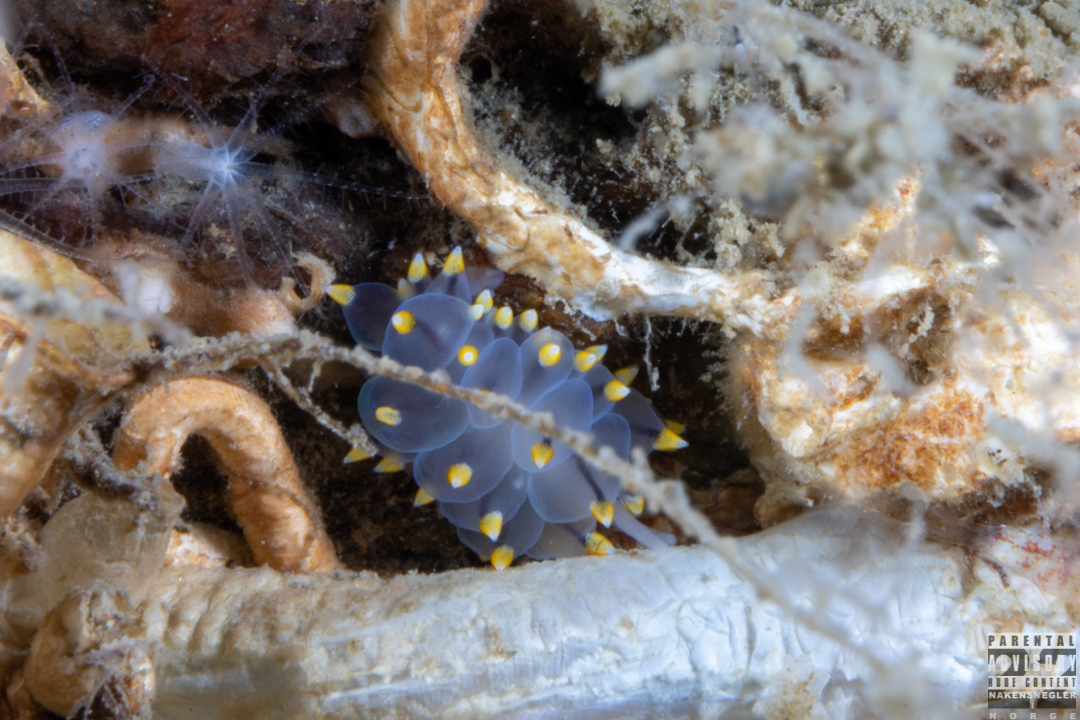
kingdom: Animalia
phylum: Mollusca
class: Gastropoda
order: Nudibranchia
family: Eubranchidae
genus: Eubranchus
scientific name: Eubranchus tricolor
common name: Painted balloon aeolis
